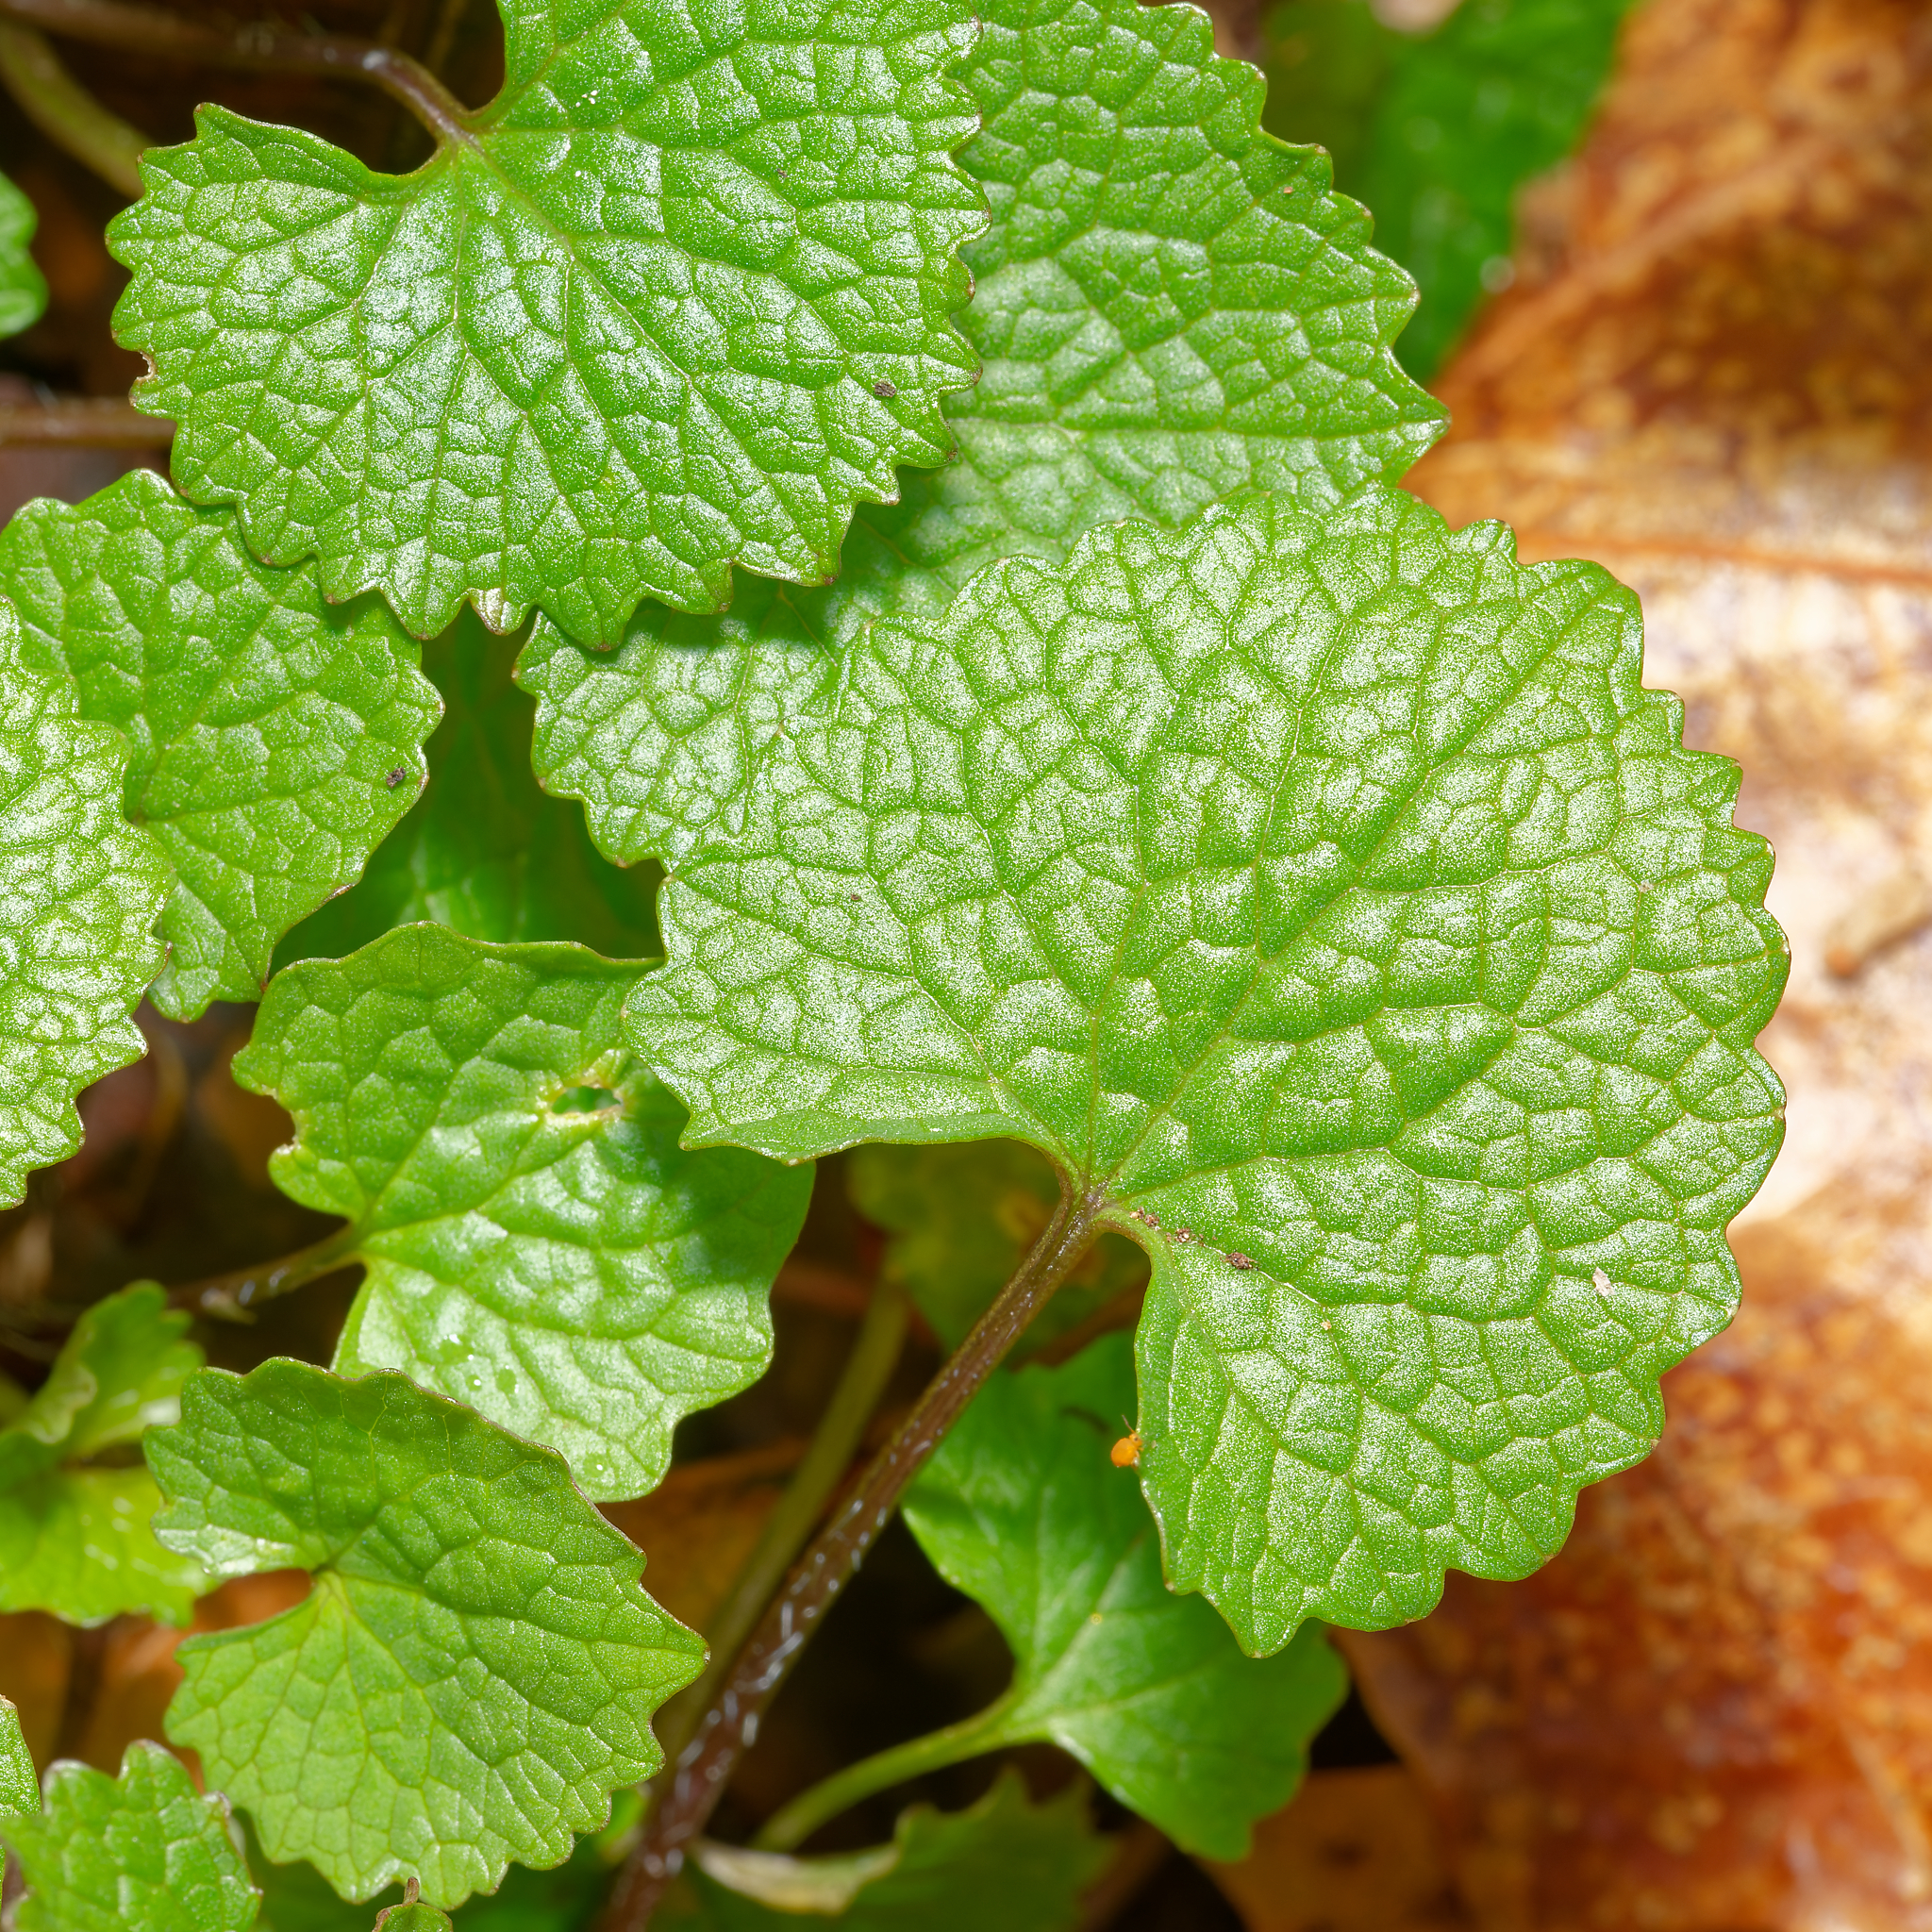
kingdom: Plantae
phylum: Tracheophyta
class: Magnoliopsida
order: Brassicales
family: Brassicaceae
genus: Alliaria
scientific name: Alliaria petiolata
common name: Garlic mustard
